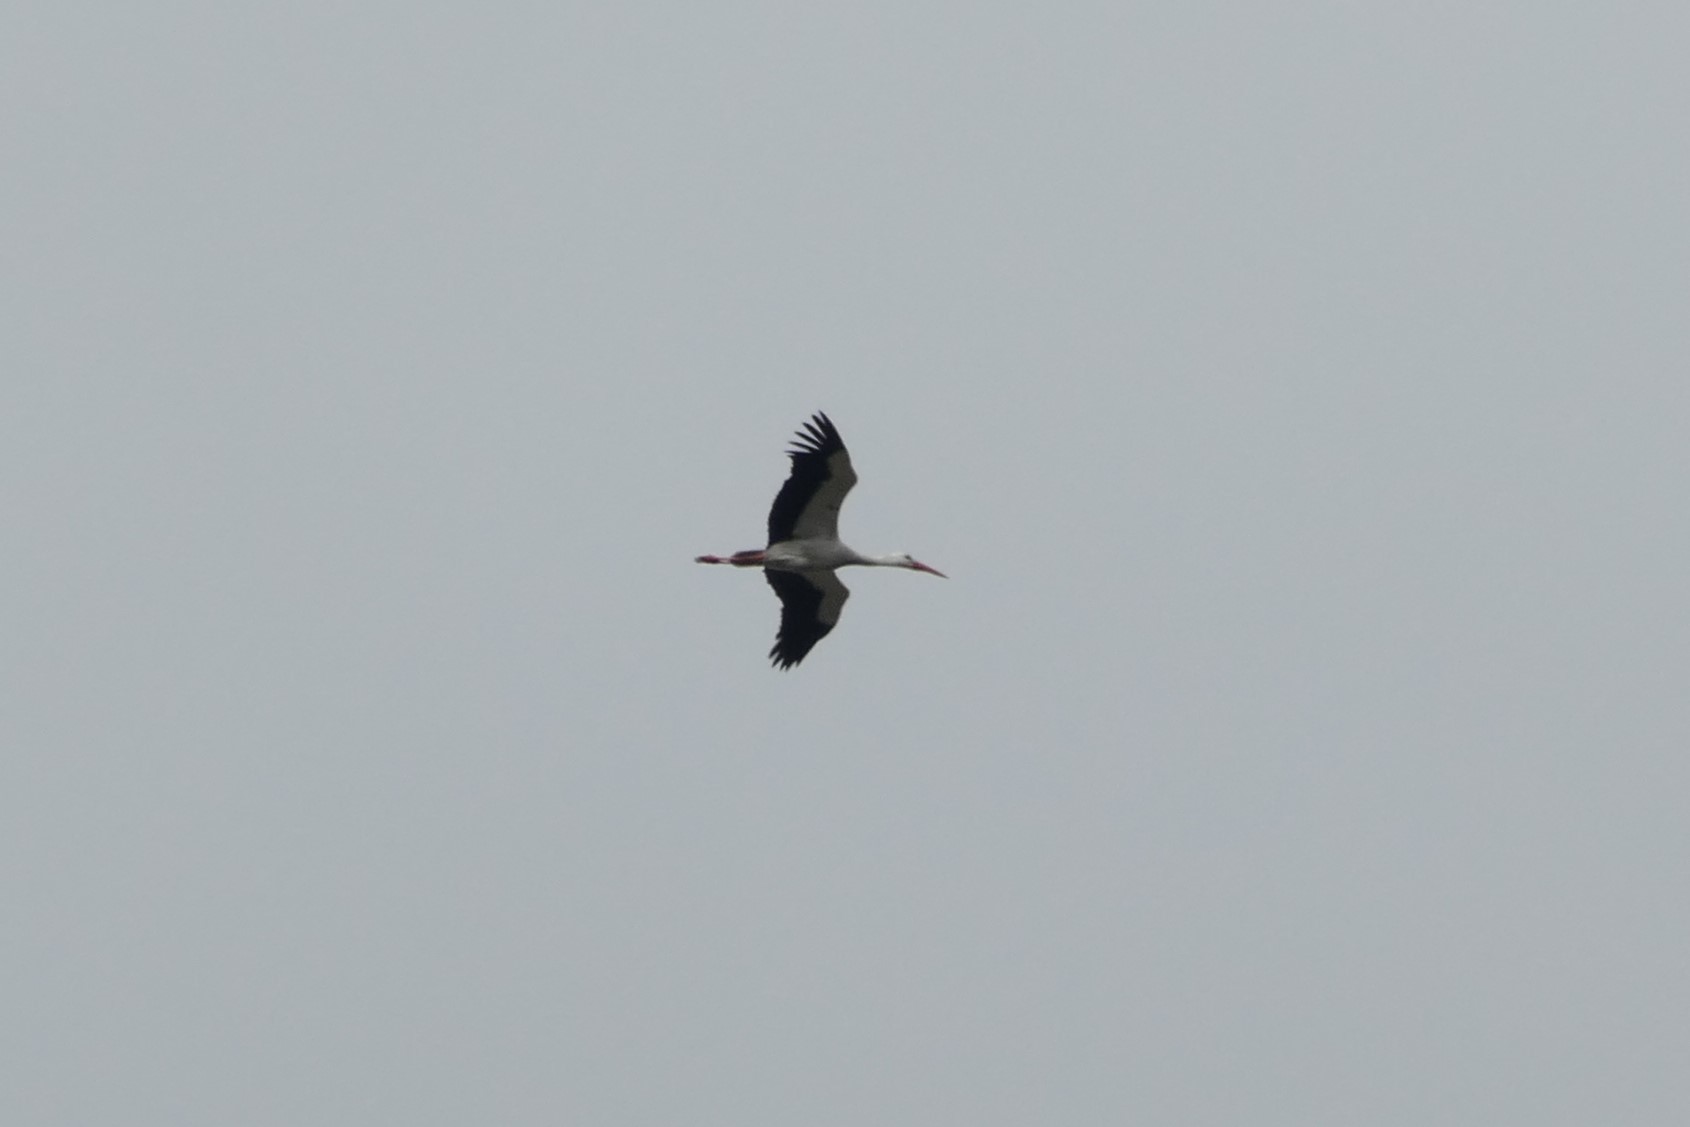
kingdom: Animalia
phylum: Chordata
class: Aves
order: Ciconiiformes
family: Ciconiidae
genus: Ciconia
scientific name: Ciconia ciconia
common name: White stork
